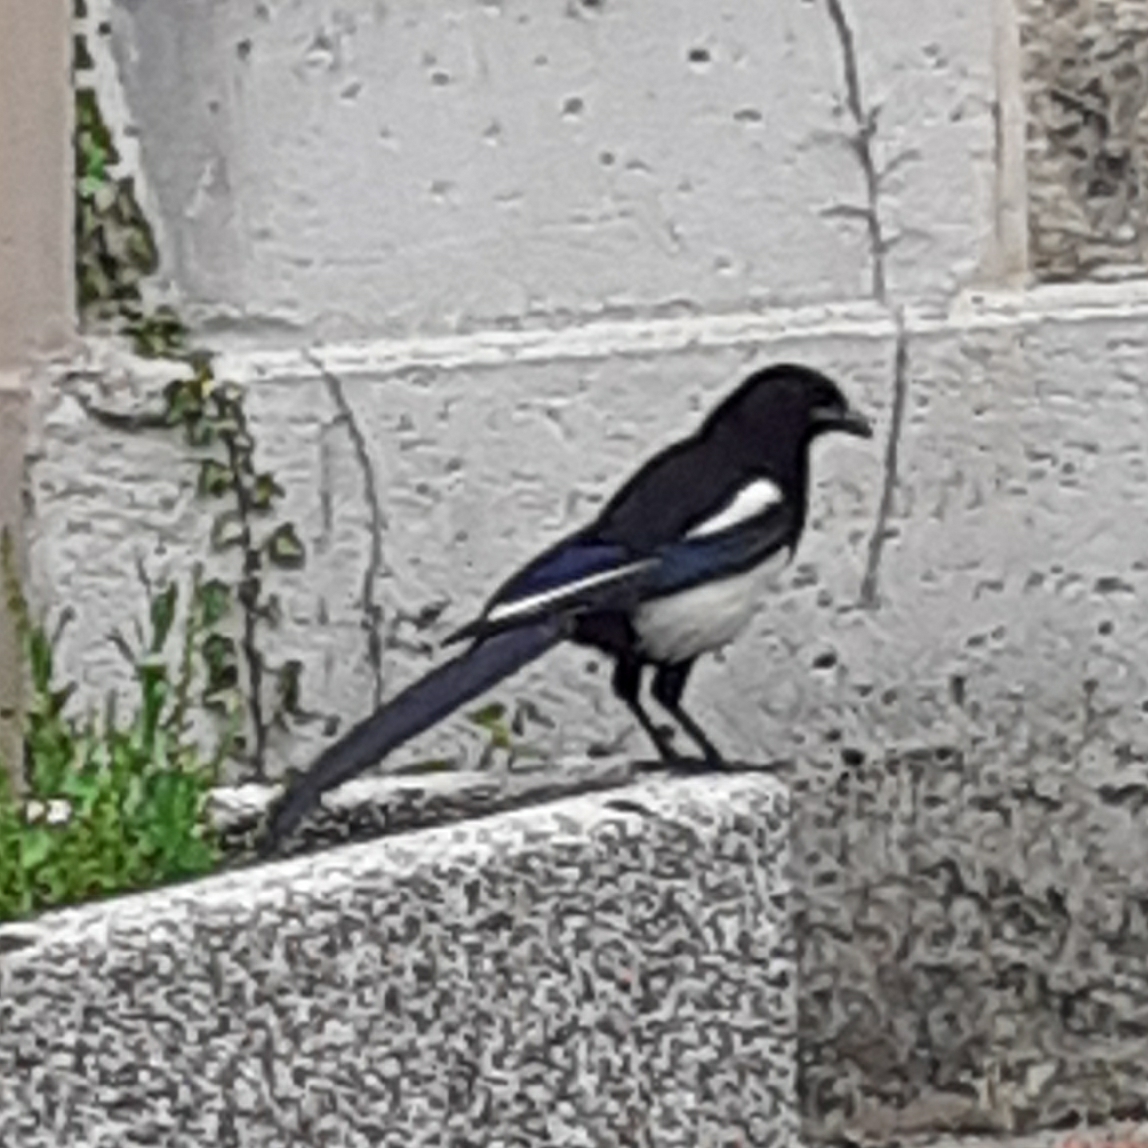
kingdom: Animalia
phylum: Chordata
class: Aves
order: Passeriformes
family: Corvidae
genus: Pica
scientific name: Pica pica
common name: Eurasian magpie
